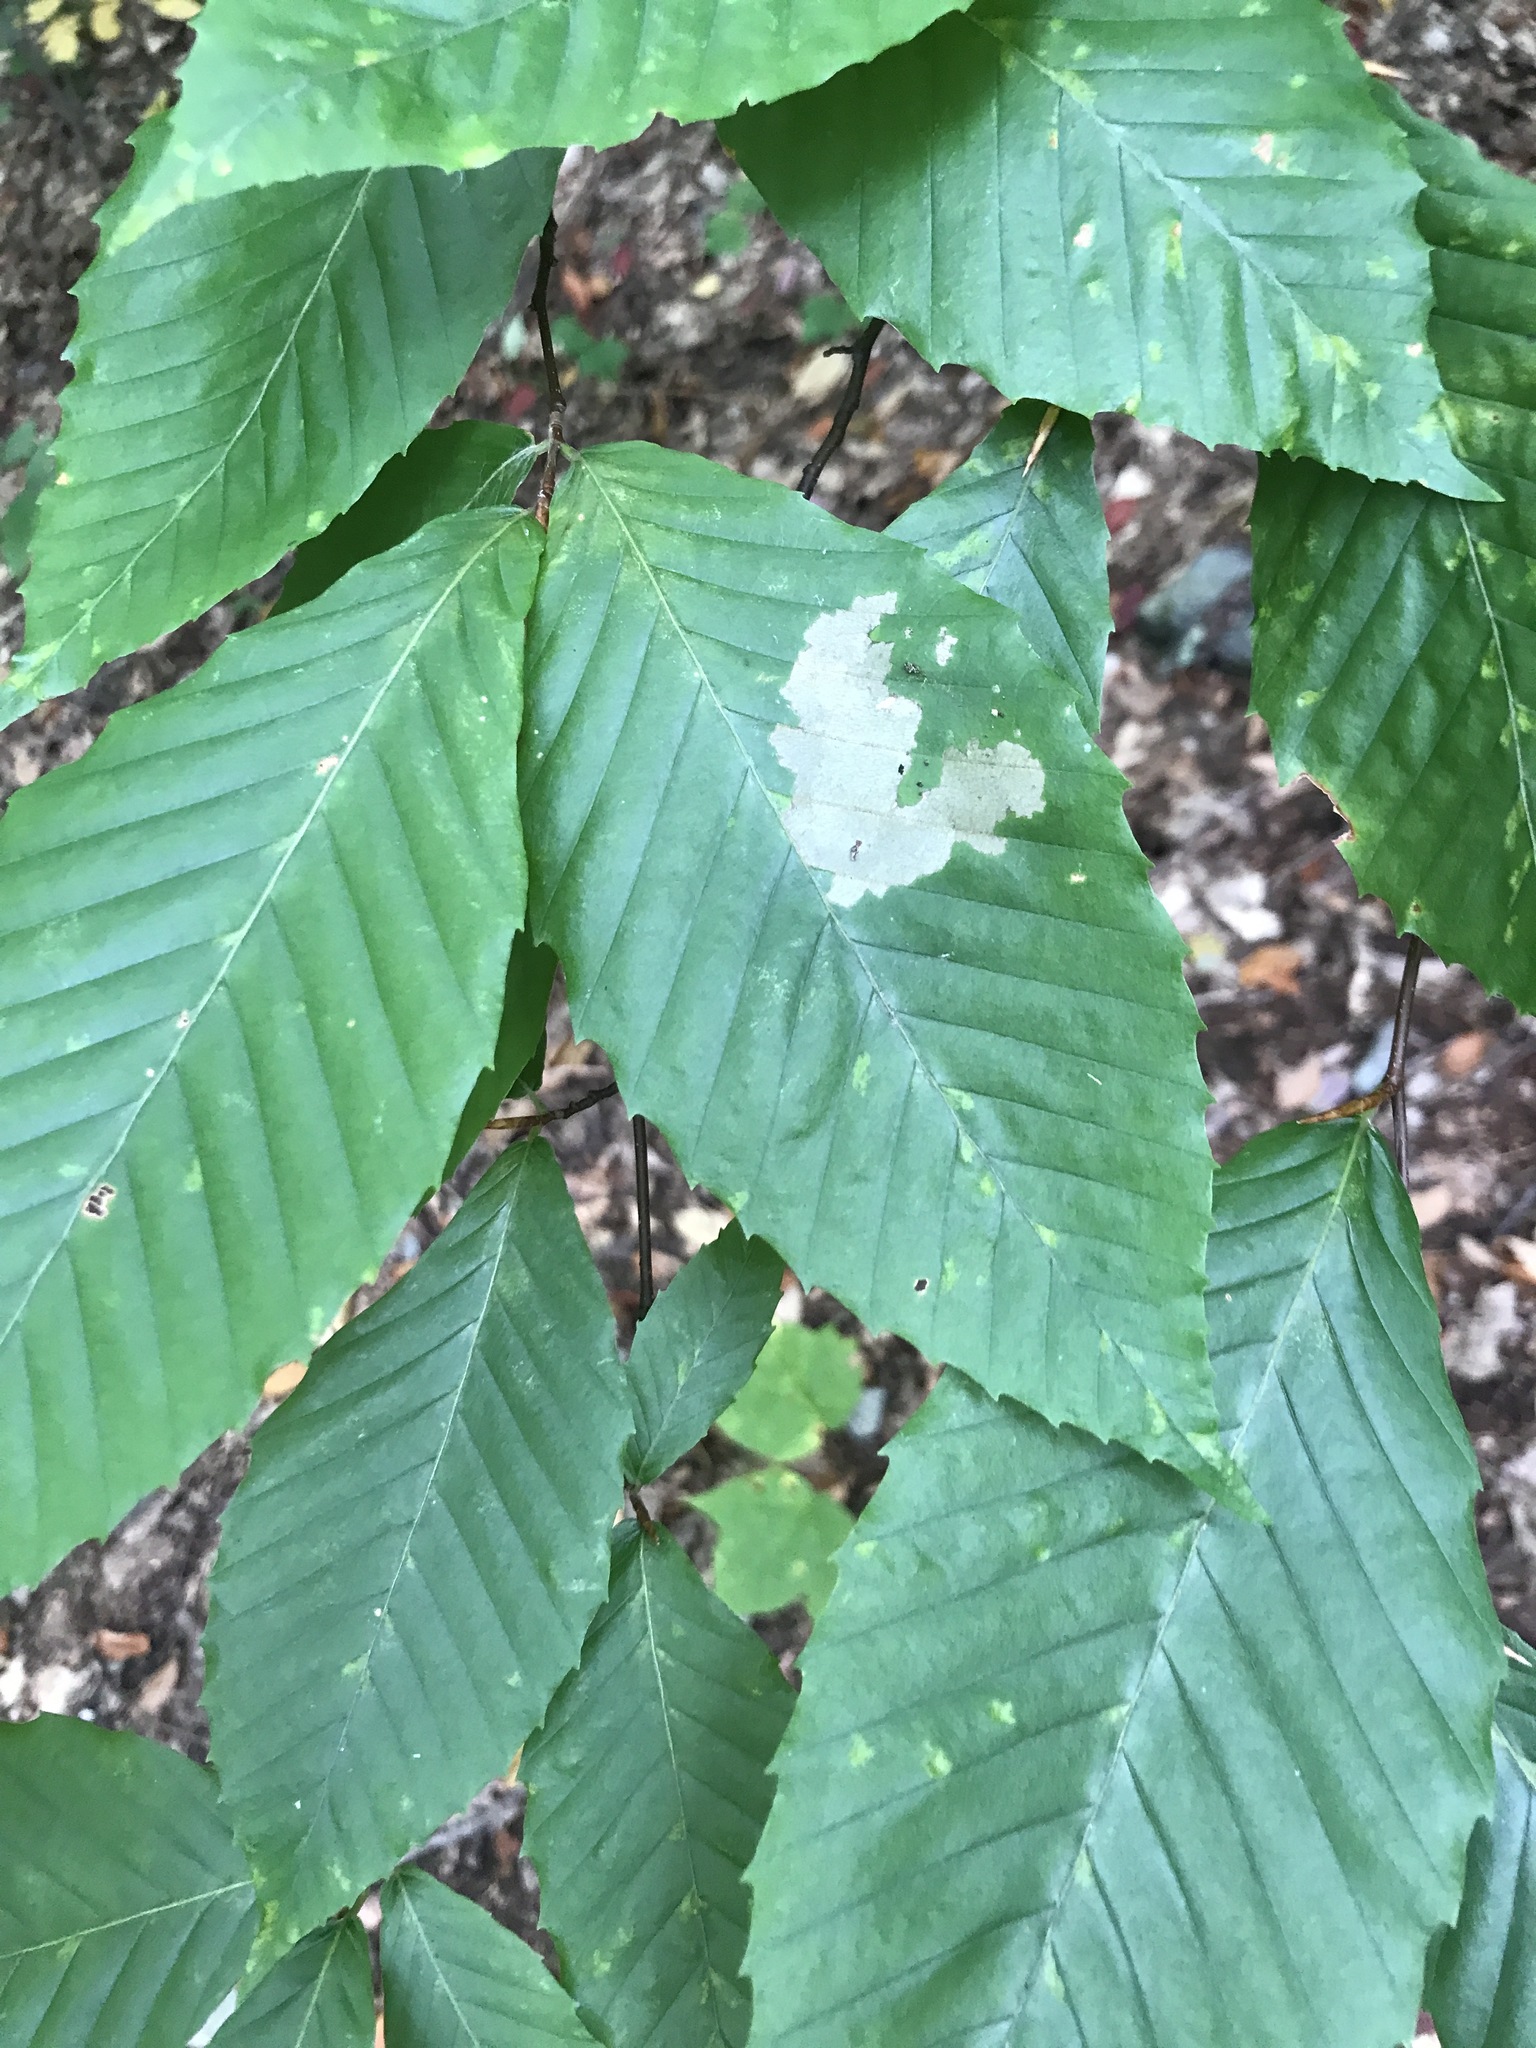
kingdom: Plantae
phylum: Tracheophyta
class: Magnoliopsida
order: Fagales
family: Fagaceae
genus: Fagus
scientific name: Fagus grandifolia
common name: American beech
